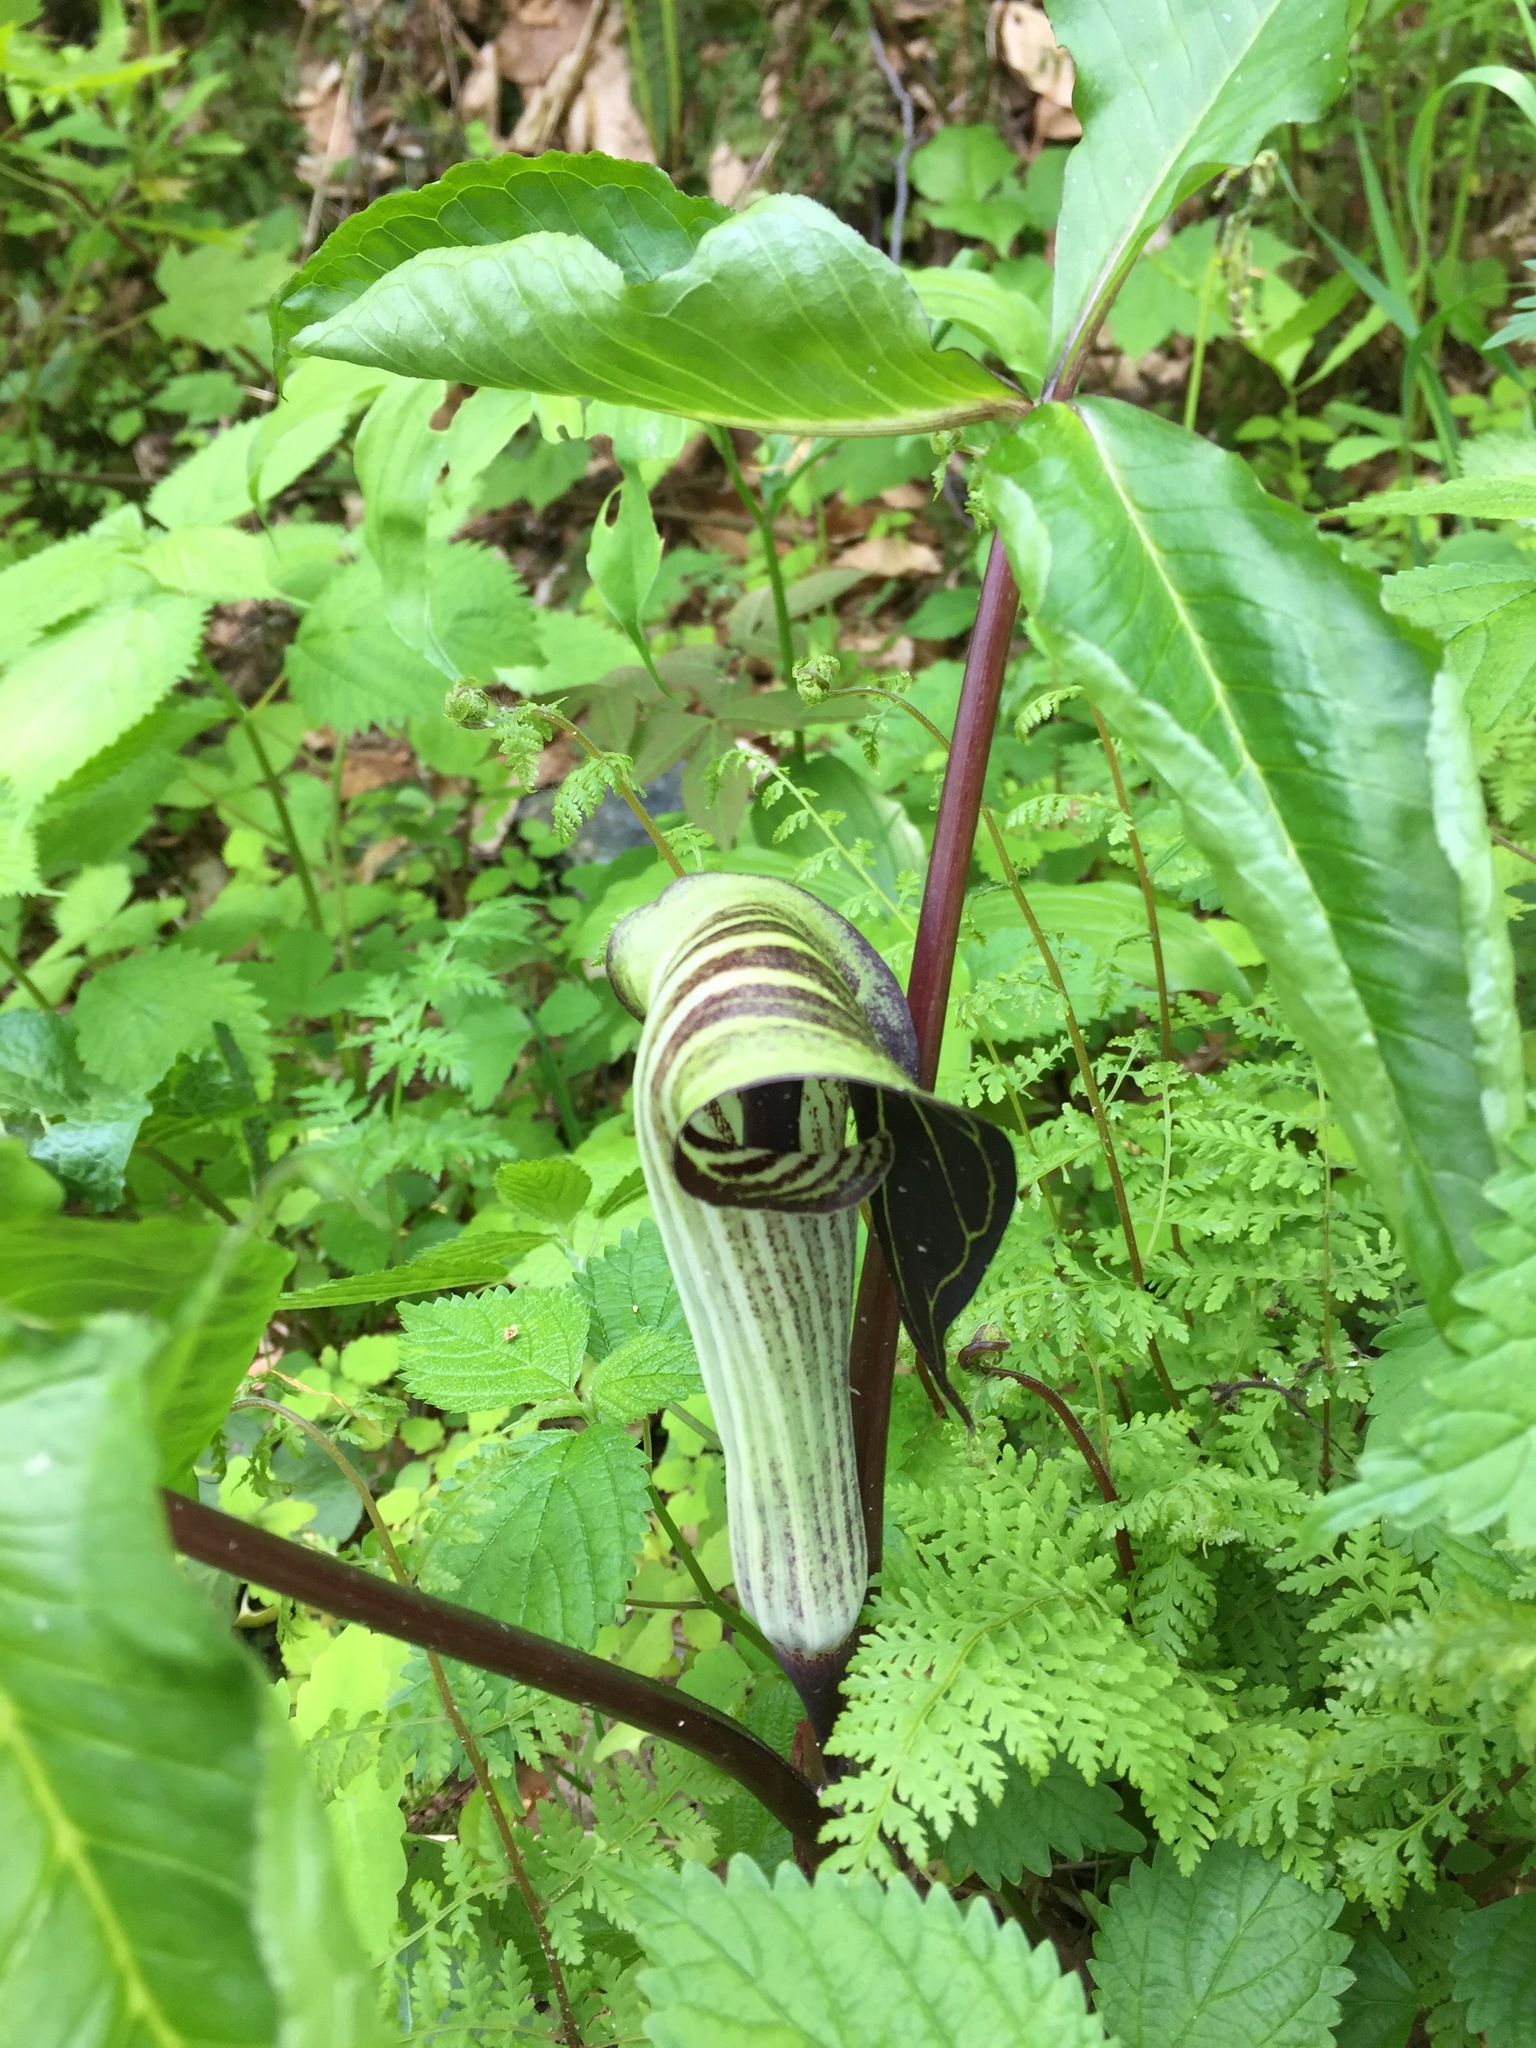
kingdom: Plantae
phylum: Tracheophyta
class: Liliopsida
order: Alismatales
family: Araceae
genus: Arisaema
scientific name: Arisaema triphyllum
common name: Jack-in-the-pulpit
